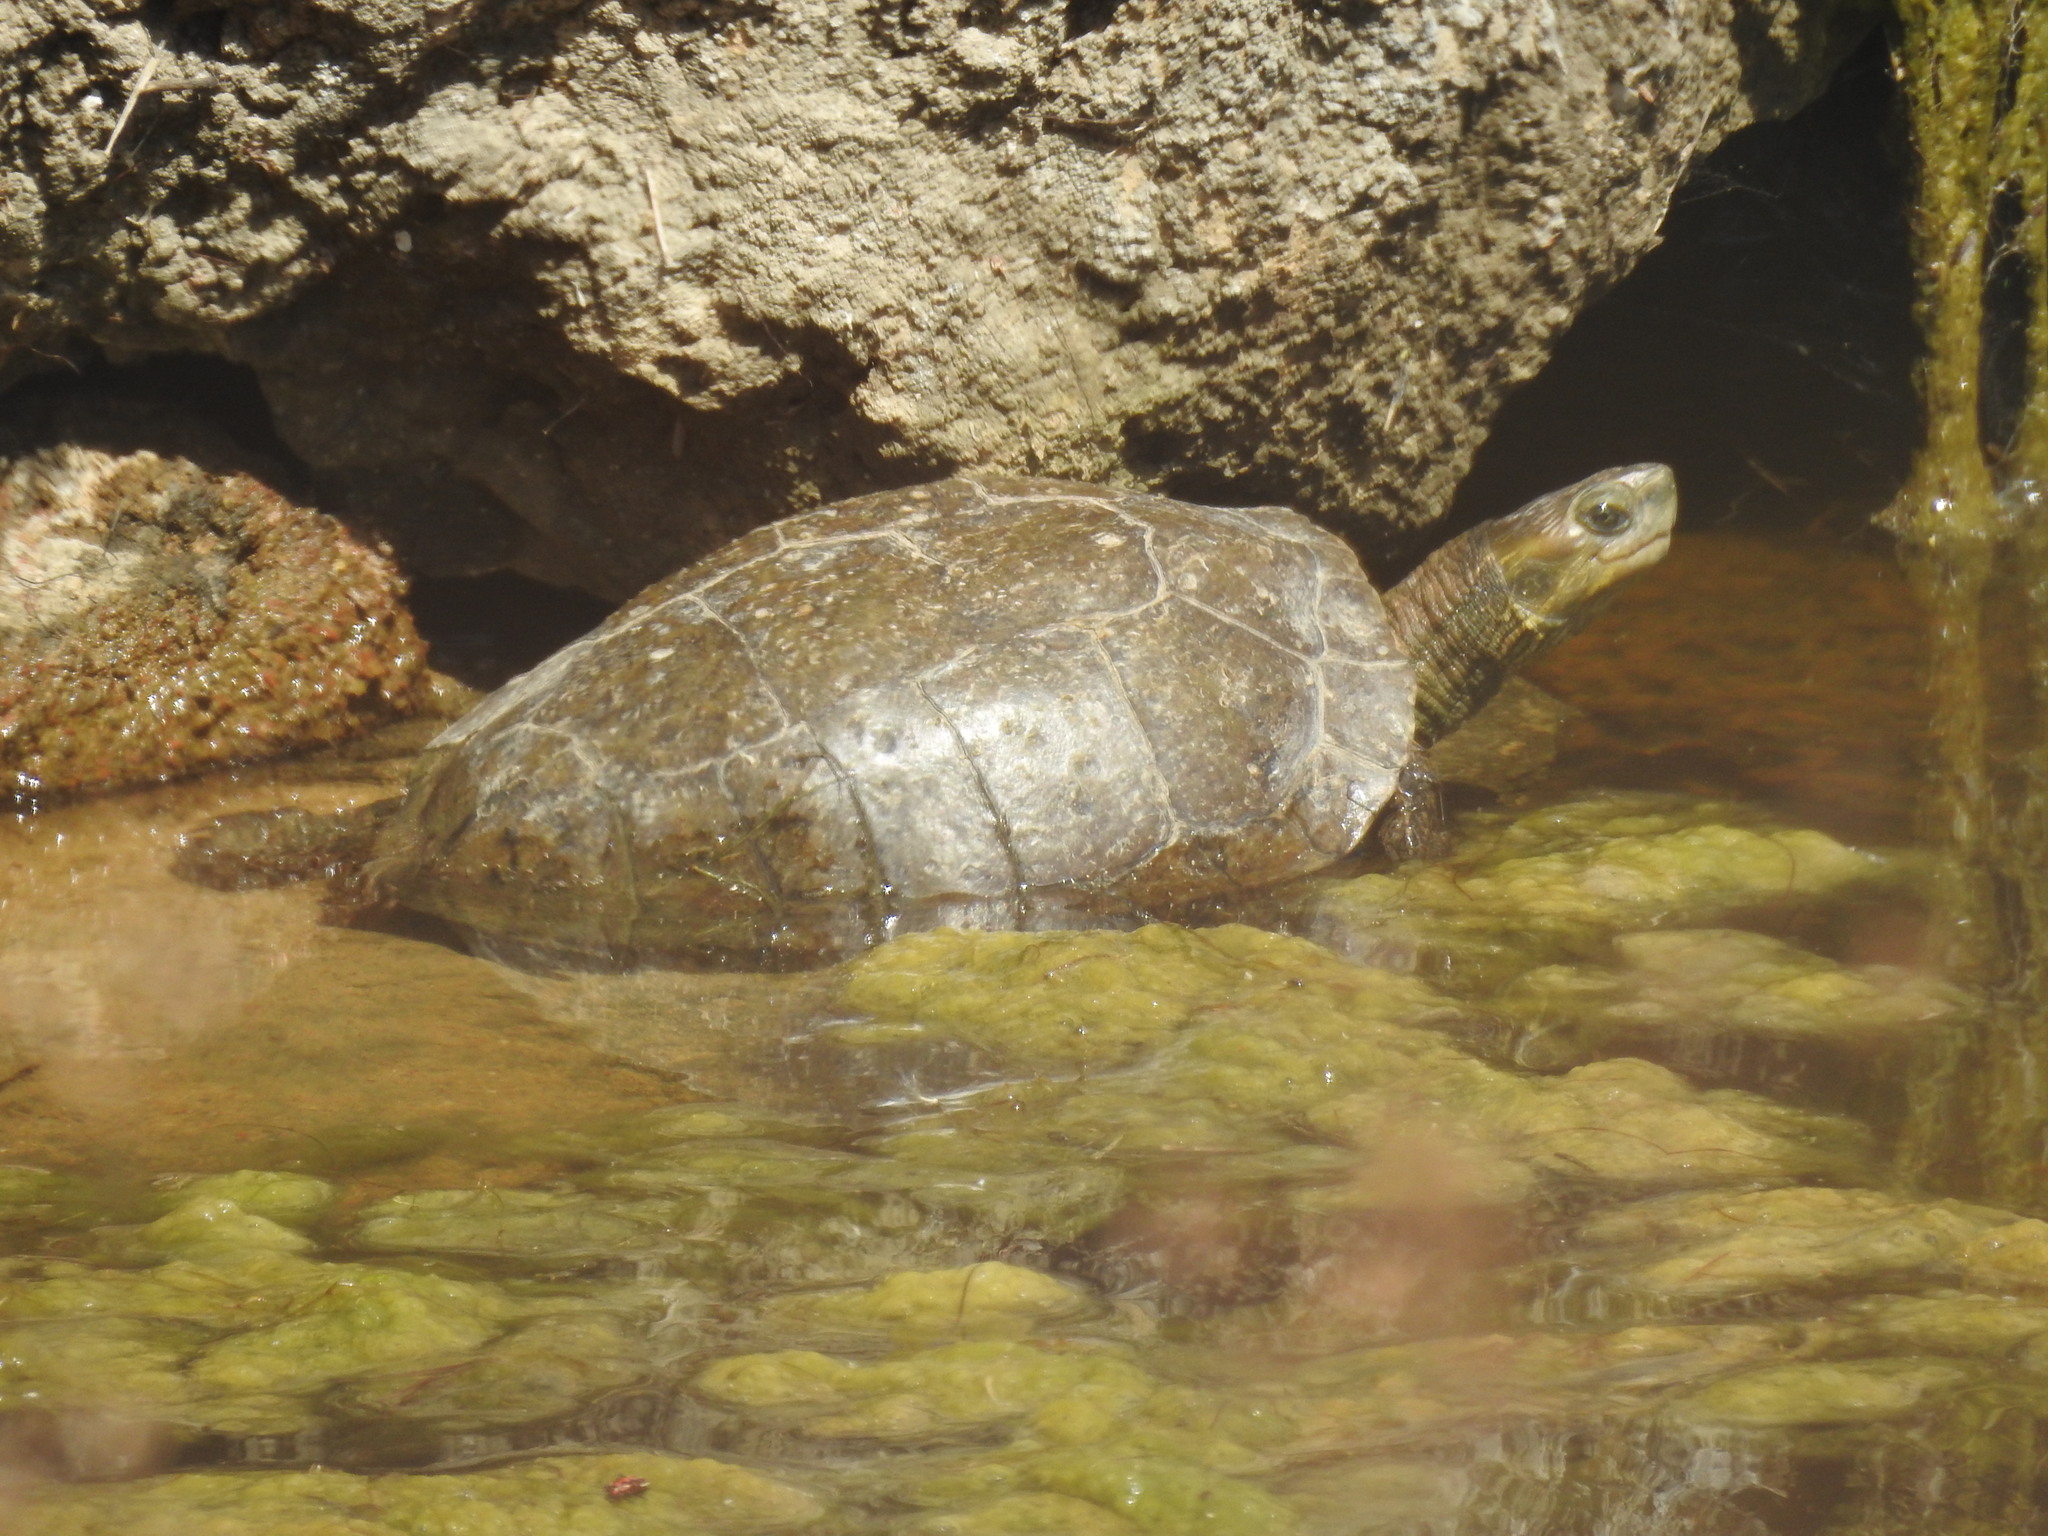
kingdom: Animalia
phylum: Chordata
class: Testudines
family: Geoemydidae
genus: Mauremys
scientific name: Mauremys rivulata
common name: Western caspian turtle
